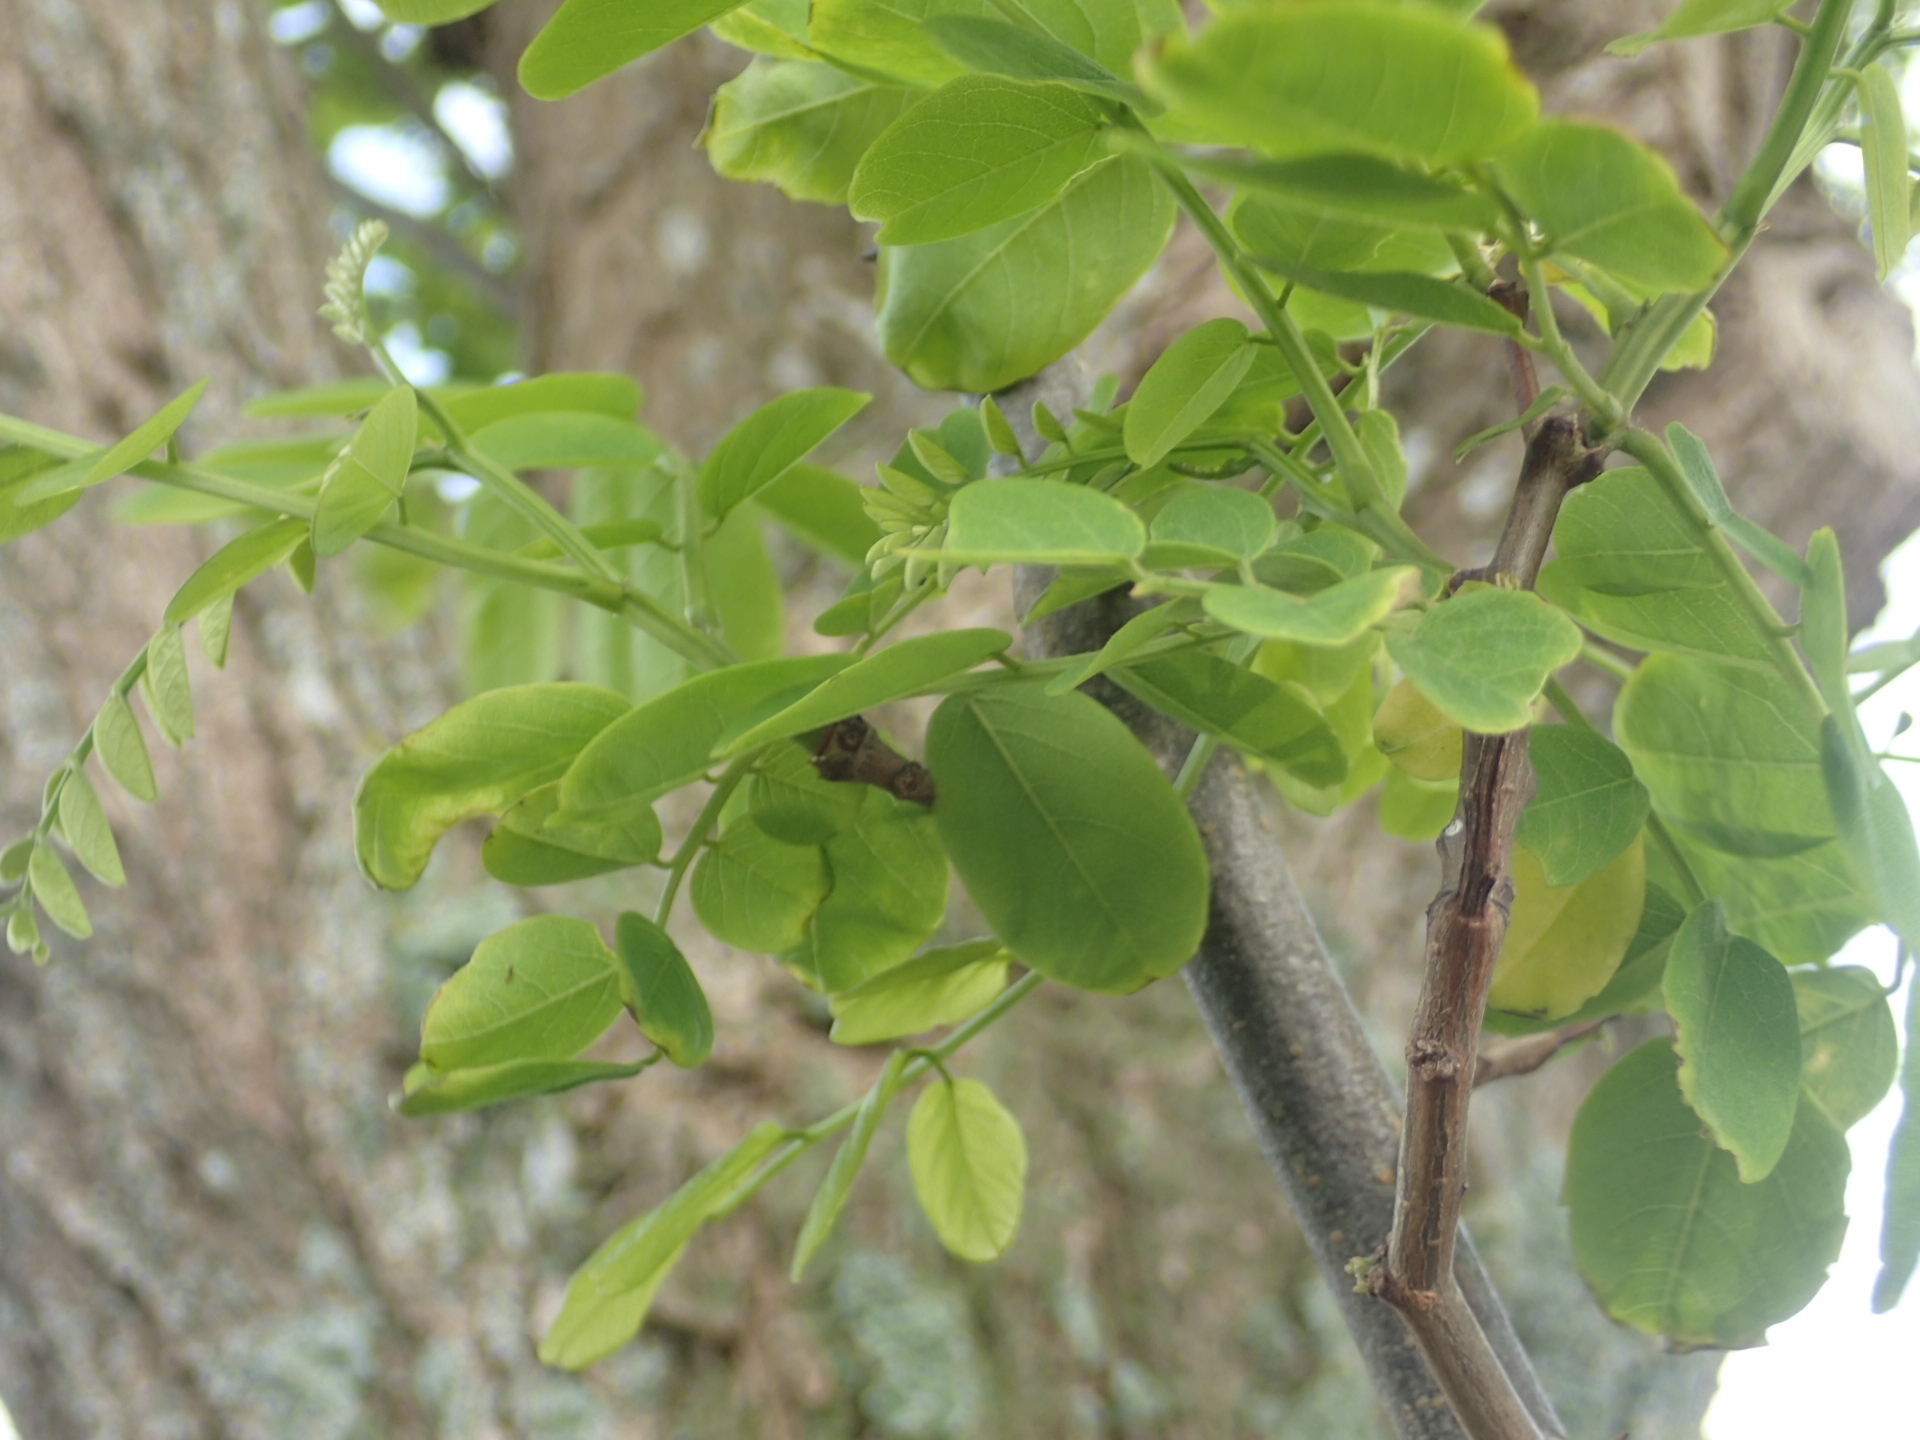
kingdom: Plantae
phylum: Tracheophyta
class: Magnoliopsida
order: Fabales
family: Fabaceae
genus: Robinia
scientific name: Robinia pseudoacacia
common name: Black locust
